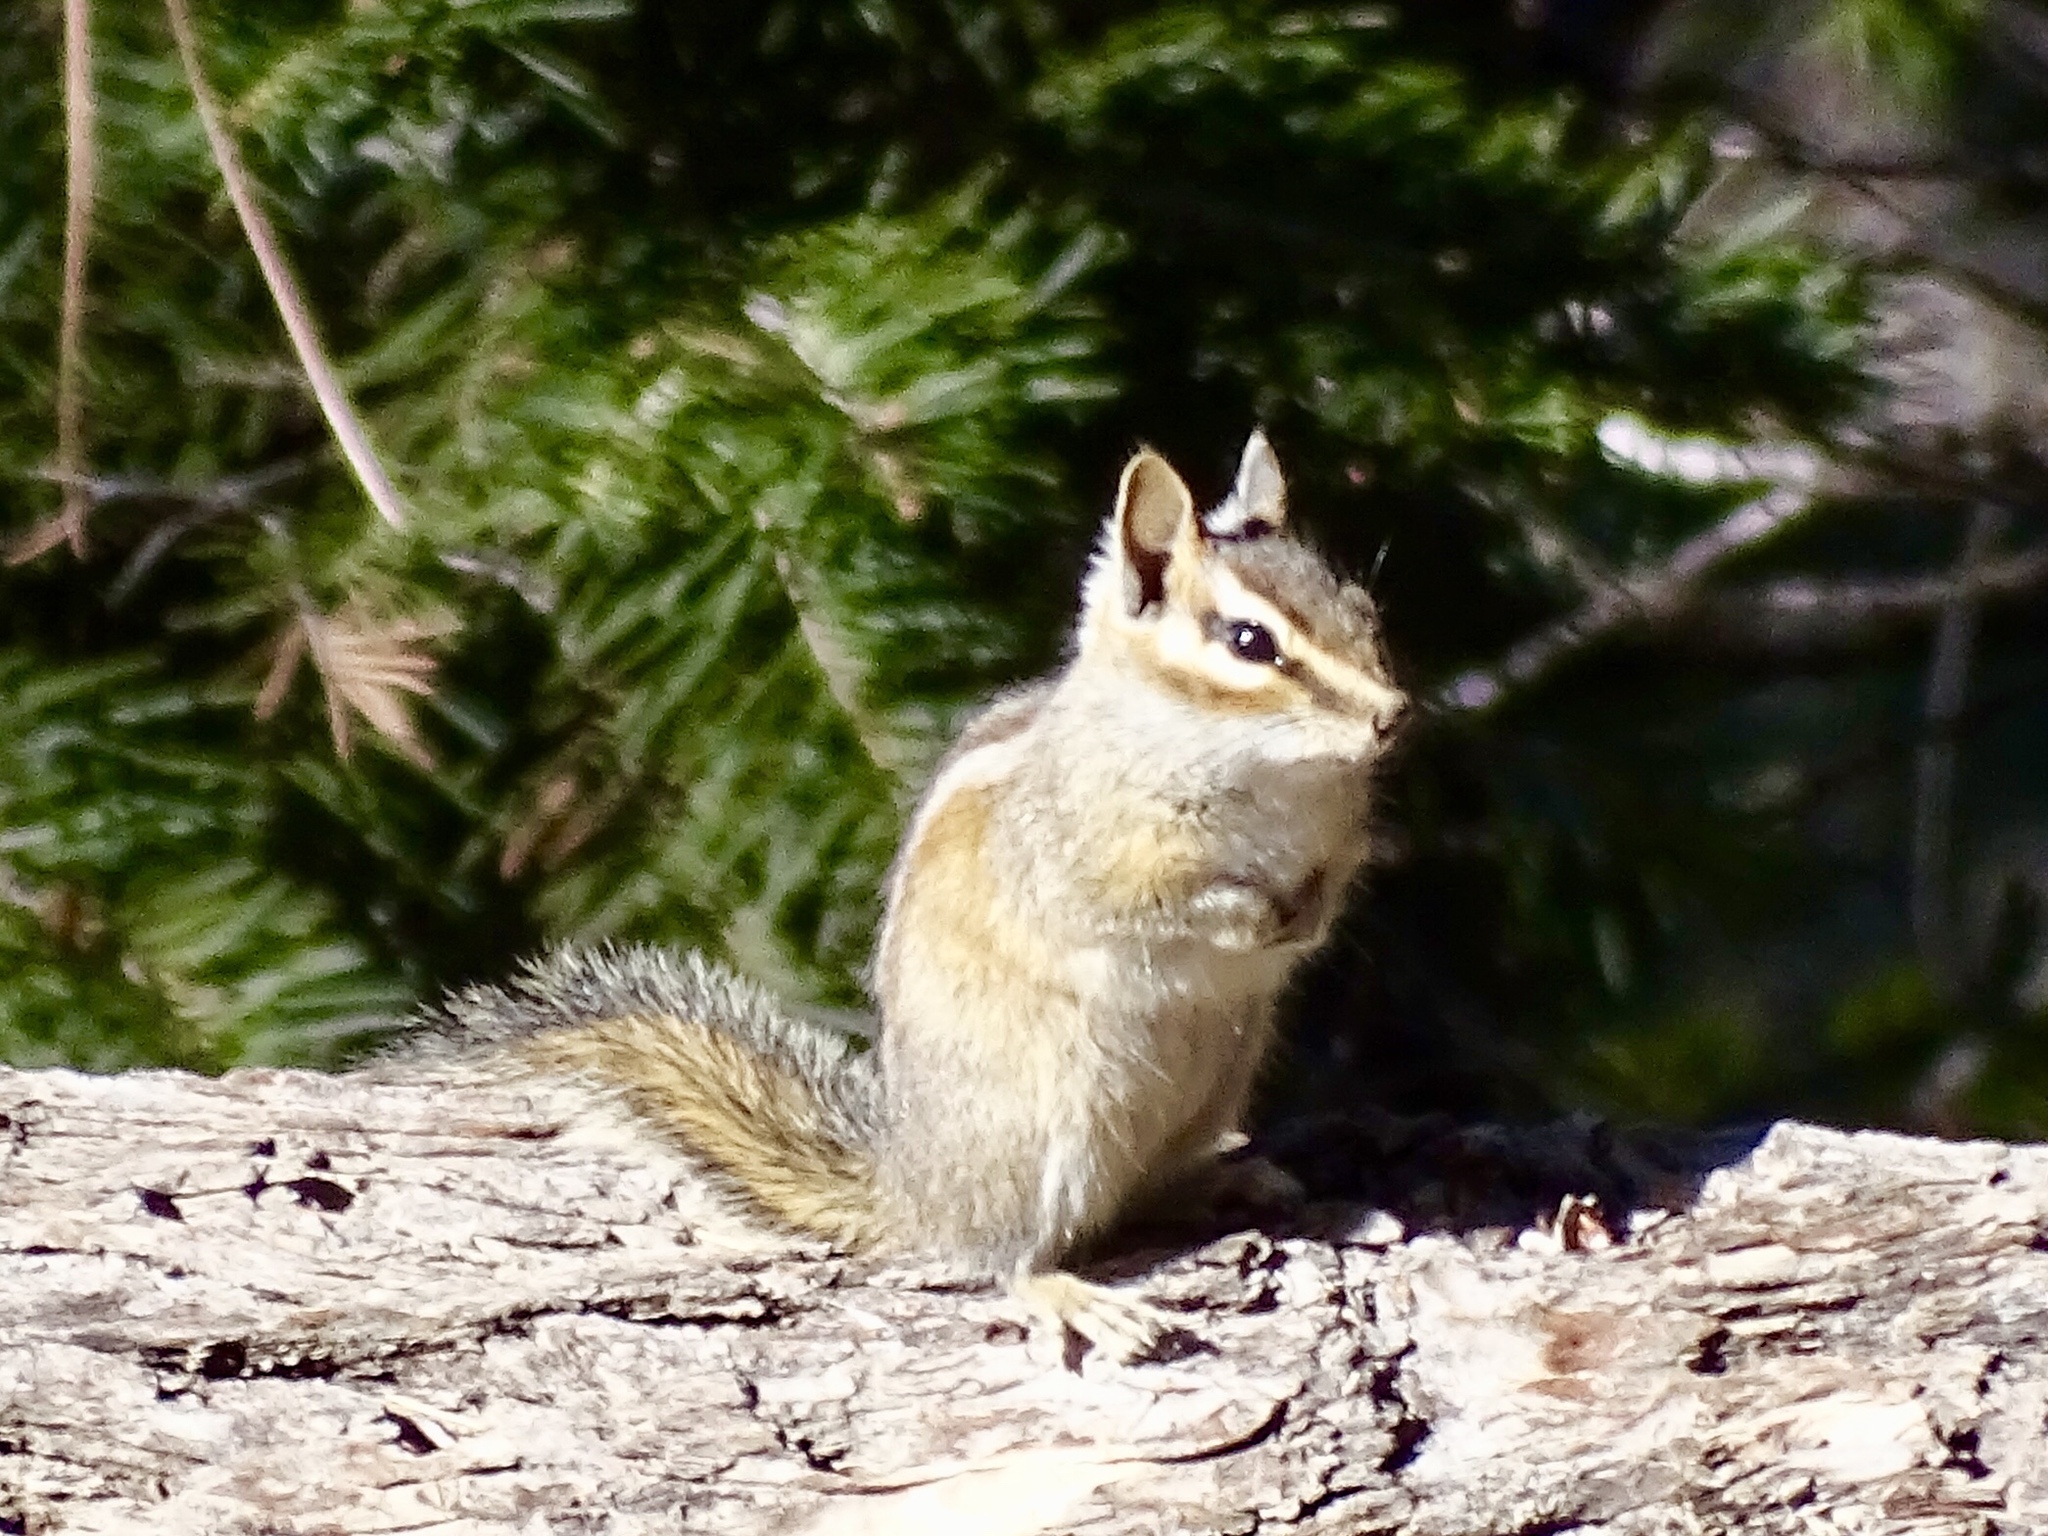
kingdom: Animalia
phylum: Chordata
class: Mammalia
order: Rodentia
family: Sciuridae
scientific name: Sciuridae
